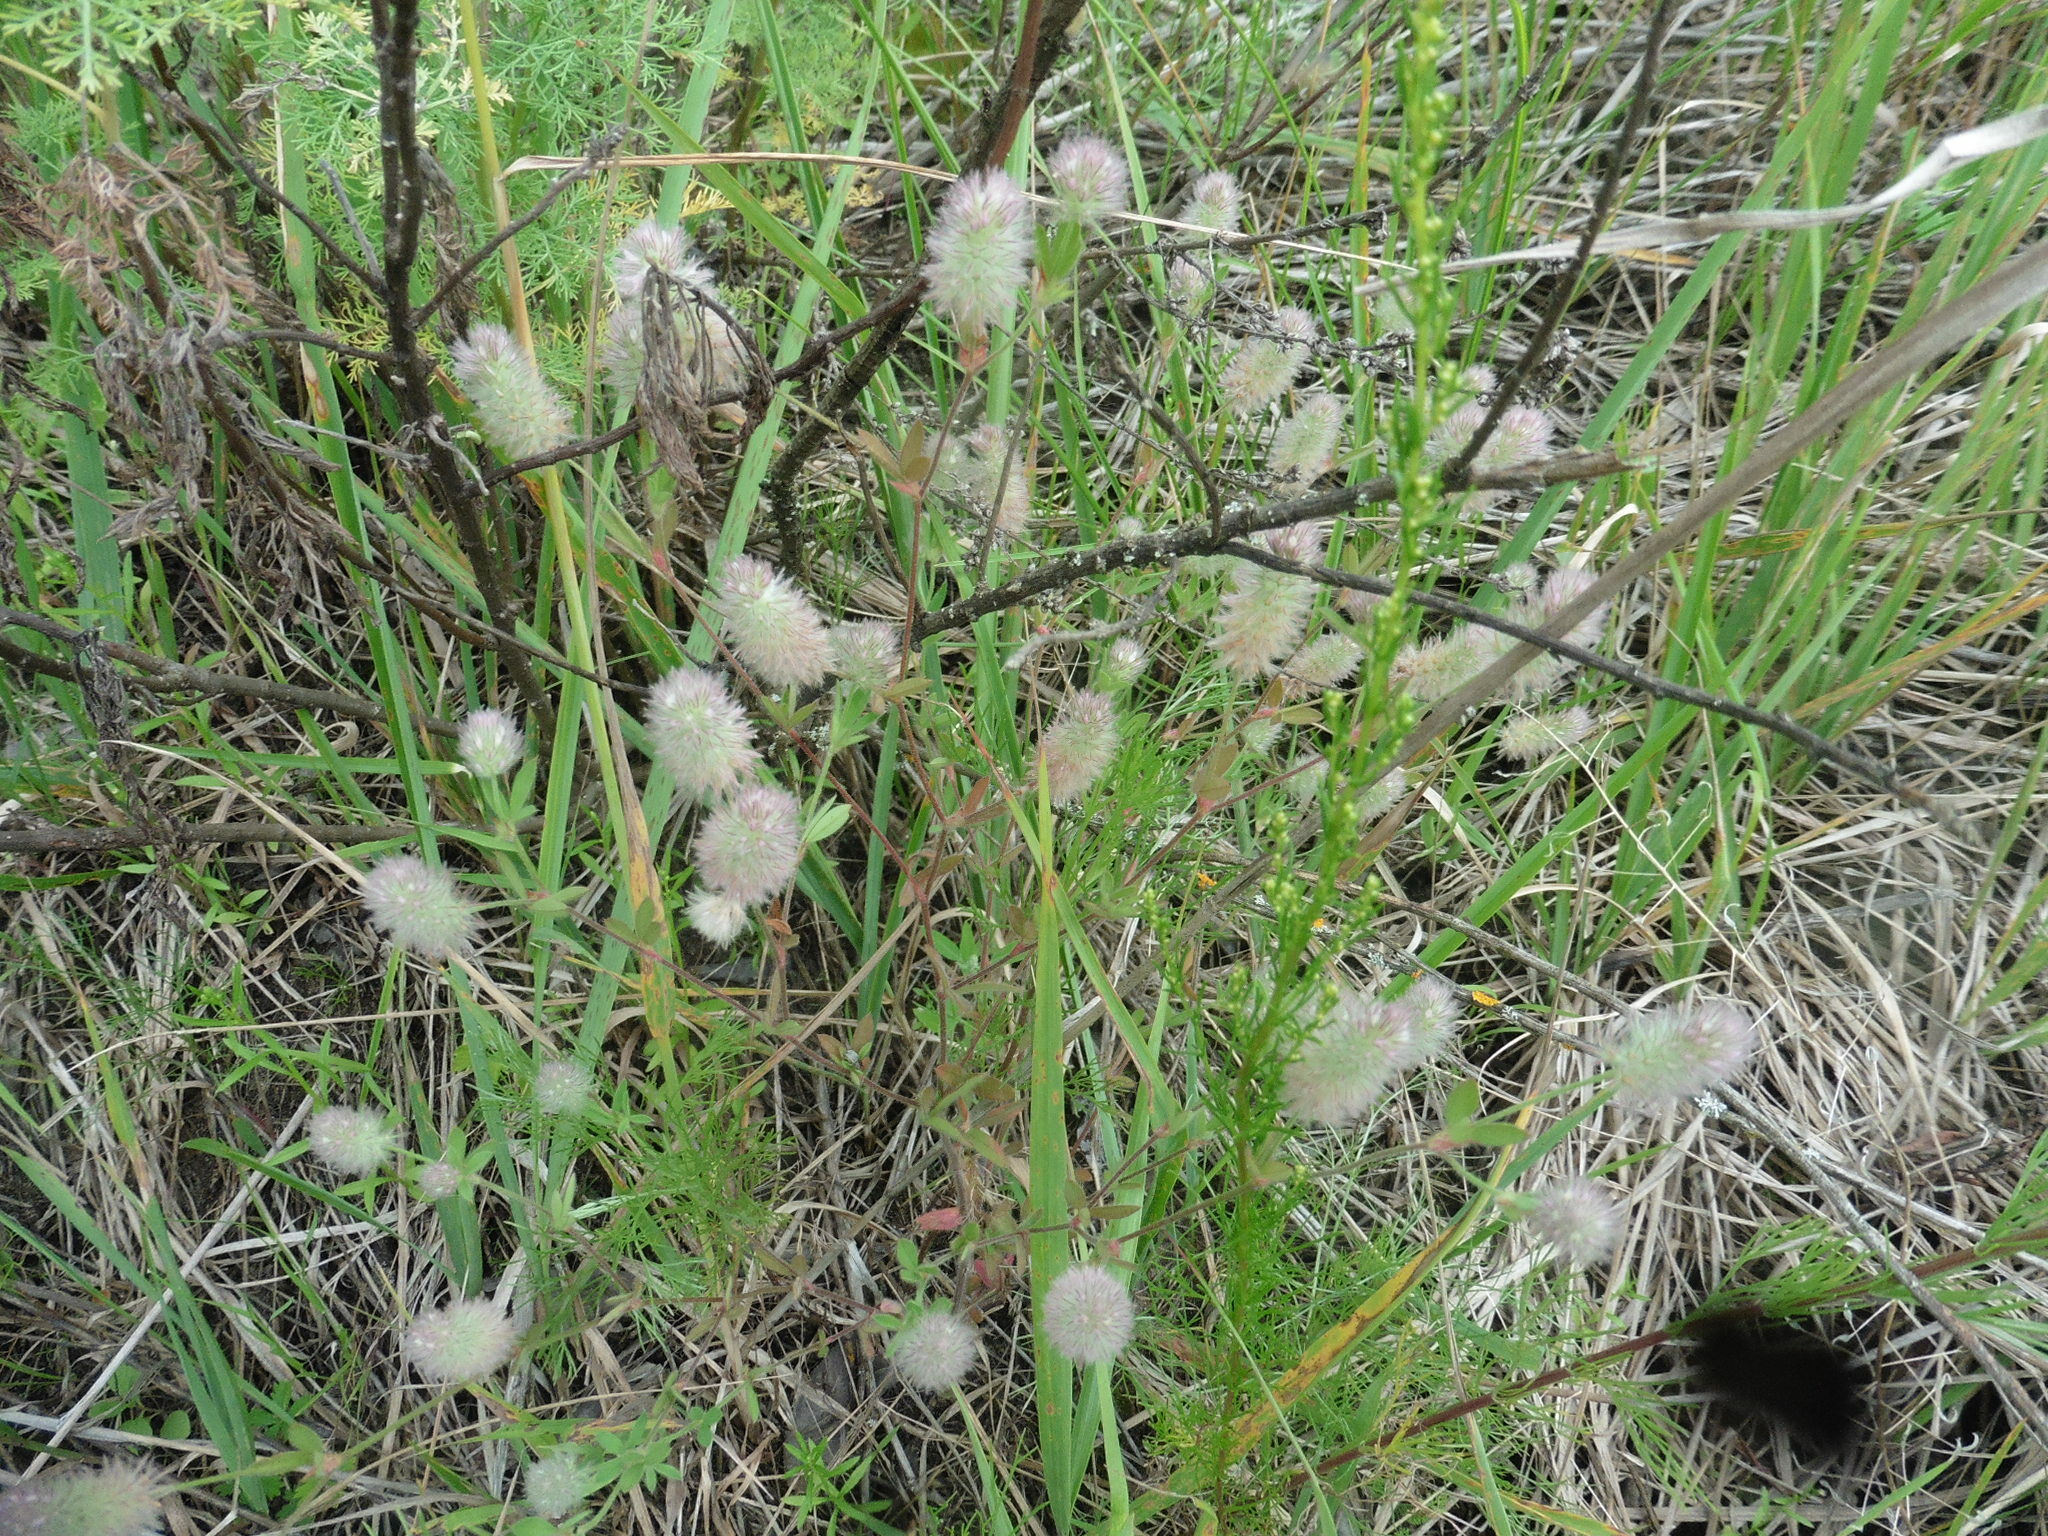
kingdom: Plantae
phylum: Tracheophyta
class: Magnoliopsida
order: Fabales
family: Fabaceae
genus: Trifolium
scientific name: Trifolium arvense
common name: Hare's-foot clover
